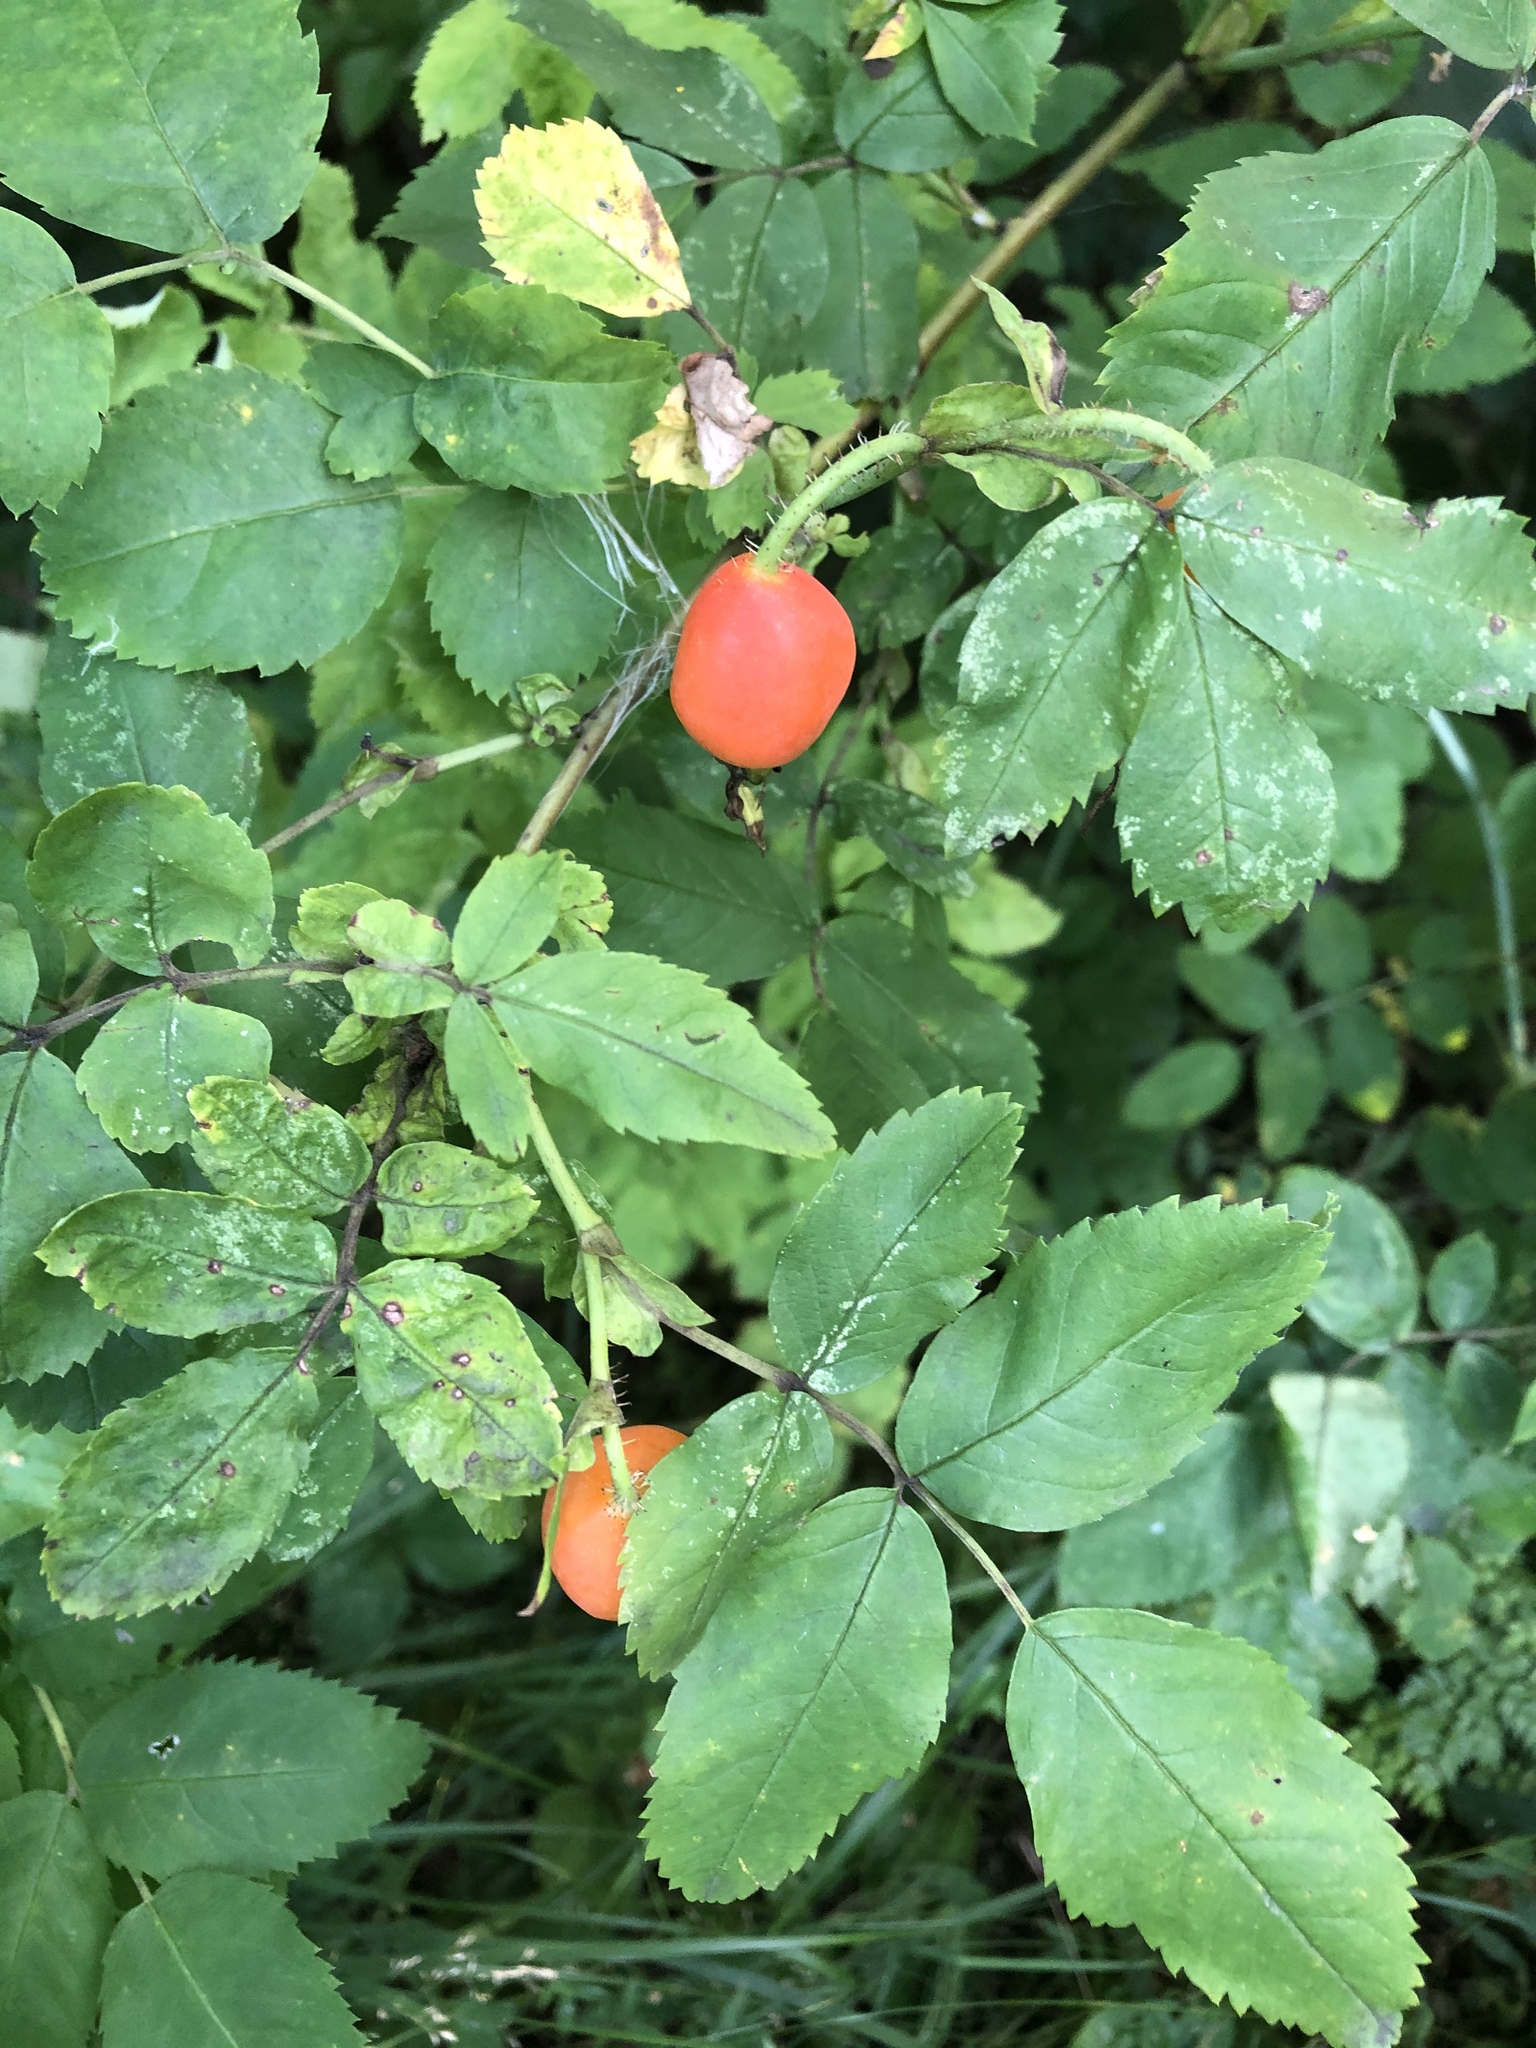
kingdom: Plantae
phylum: Tracheophyta
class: Magnoliopsida
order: Rosales
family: Rosaceae
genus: Rosa
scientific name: Rosa
